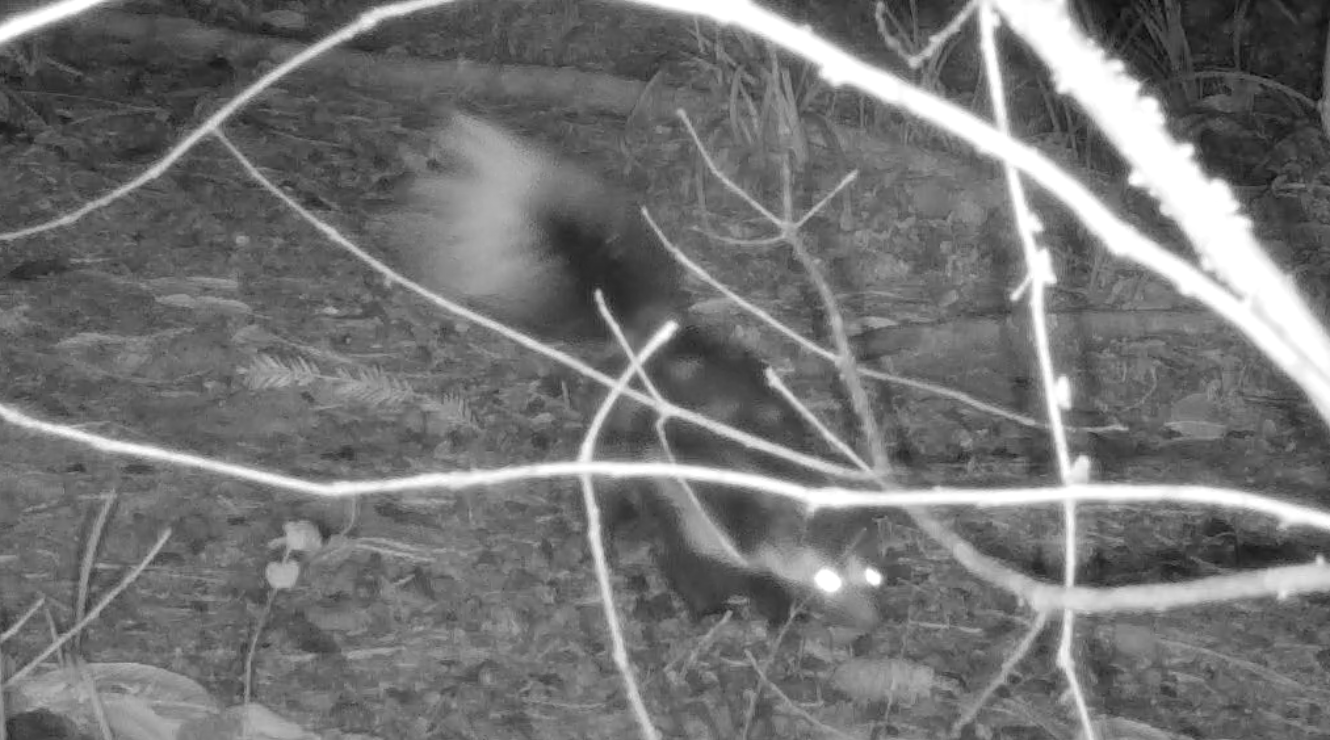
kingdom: Animalia
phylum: Chordata
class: Mammalia
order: Carnivora
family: Mephitidae
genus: Spilogale
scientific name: Spilogale gracilis
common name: Western spotted skunk
